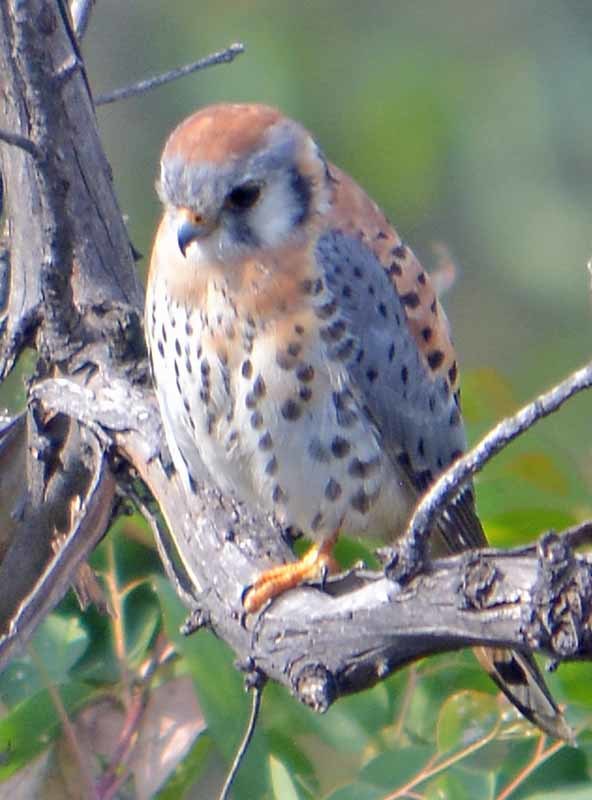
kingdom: Animalia
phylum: Chordata
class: Aves
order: Falconiformes
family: Falconidae
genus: Falco
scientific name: Falco sparverius
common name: American kestrel
